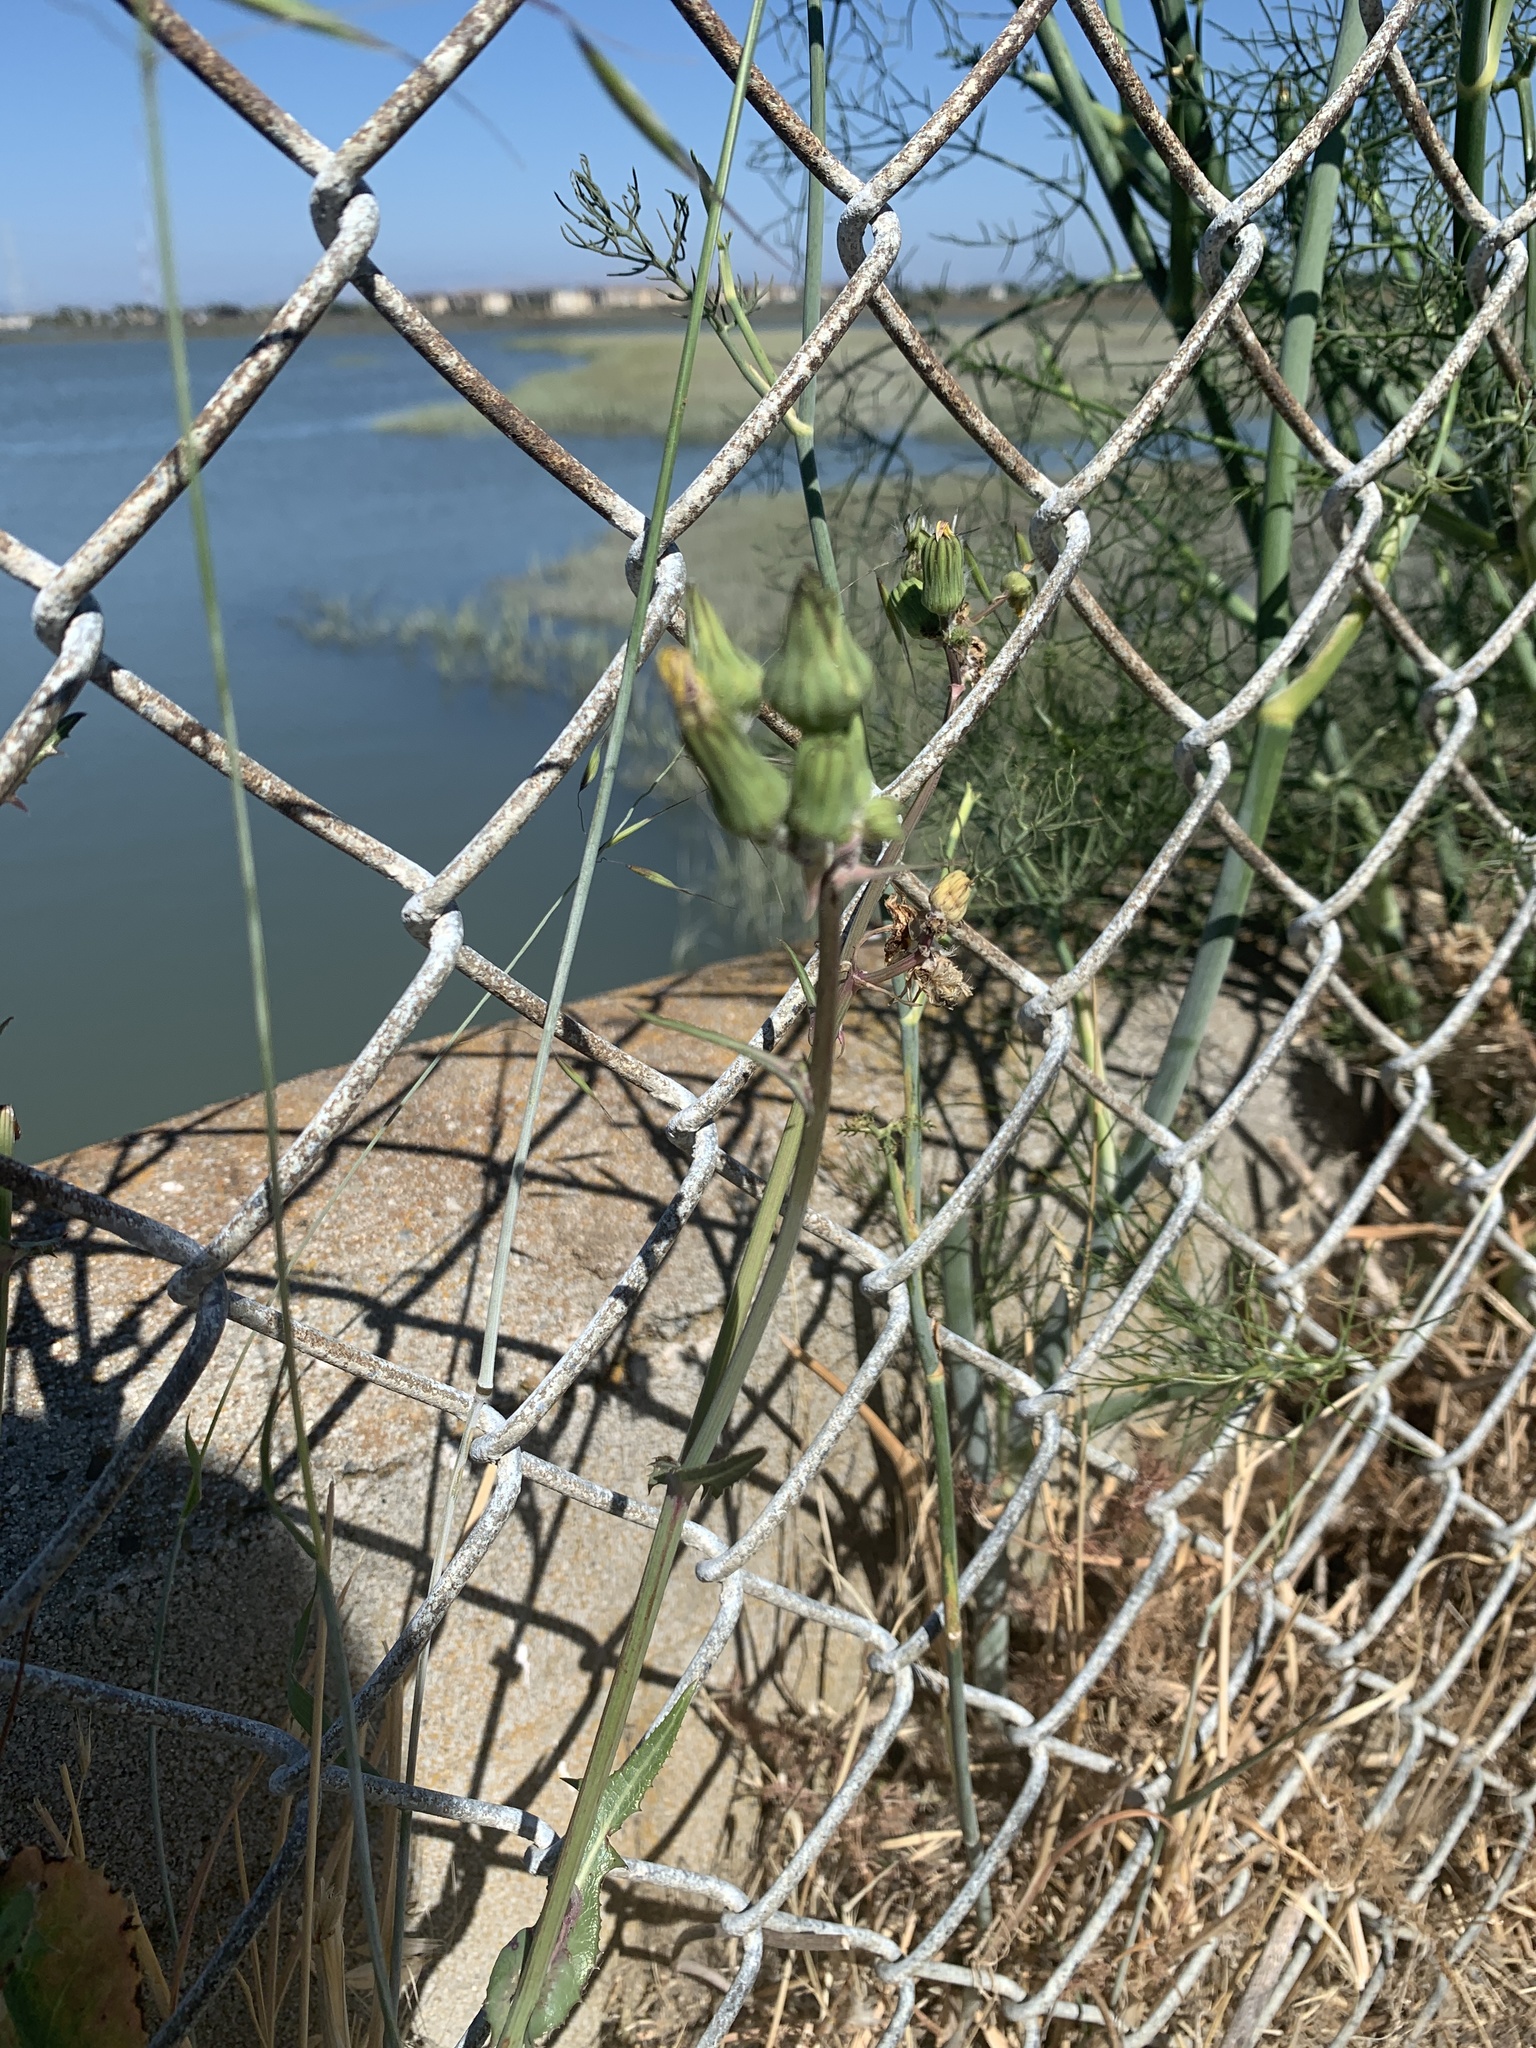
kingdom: Plantae
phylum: Tracheophyta
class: Magnoliopsida
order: Asterales
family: Asteraceae
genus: Sonchus
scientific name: Sonchus oleraceus
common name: Common sowthistle
